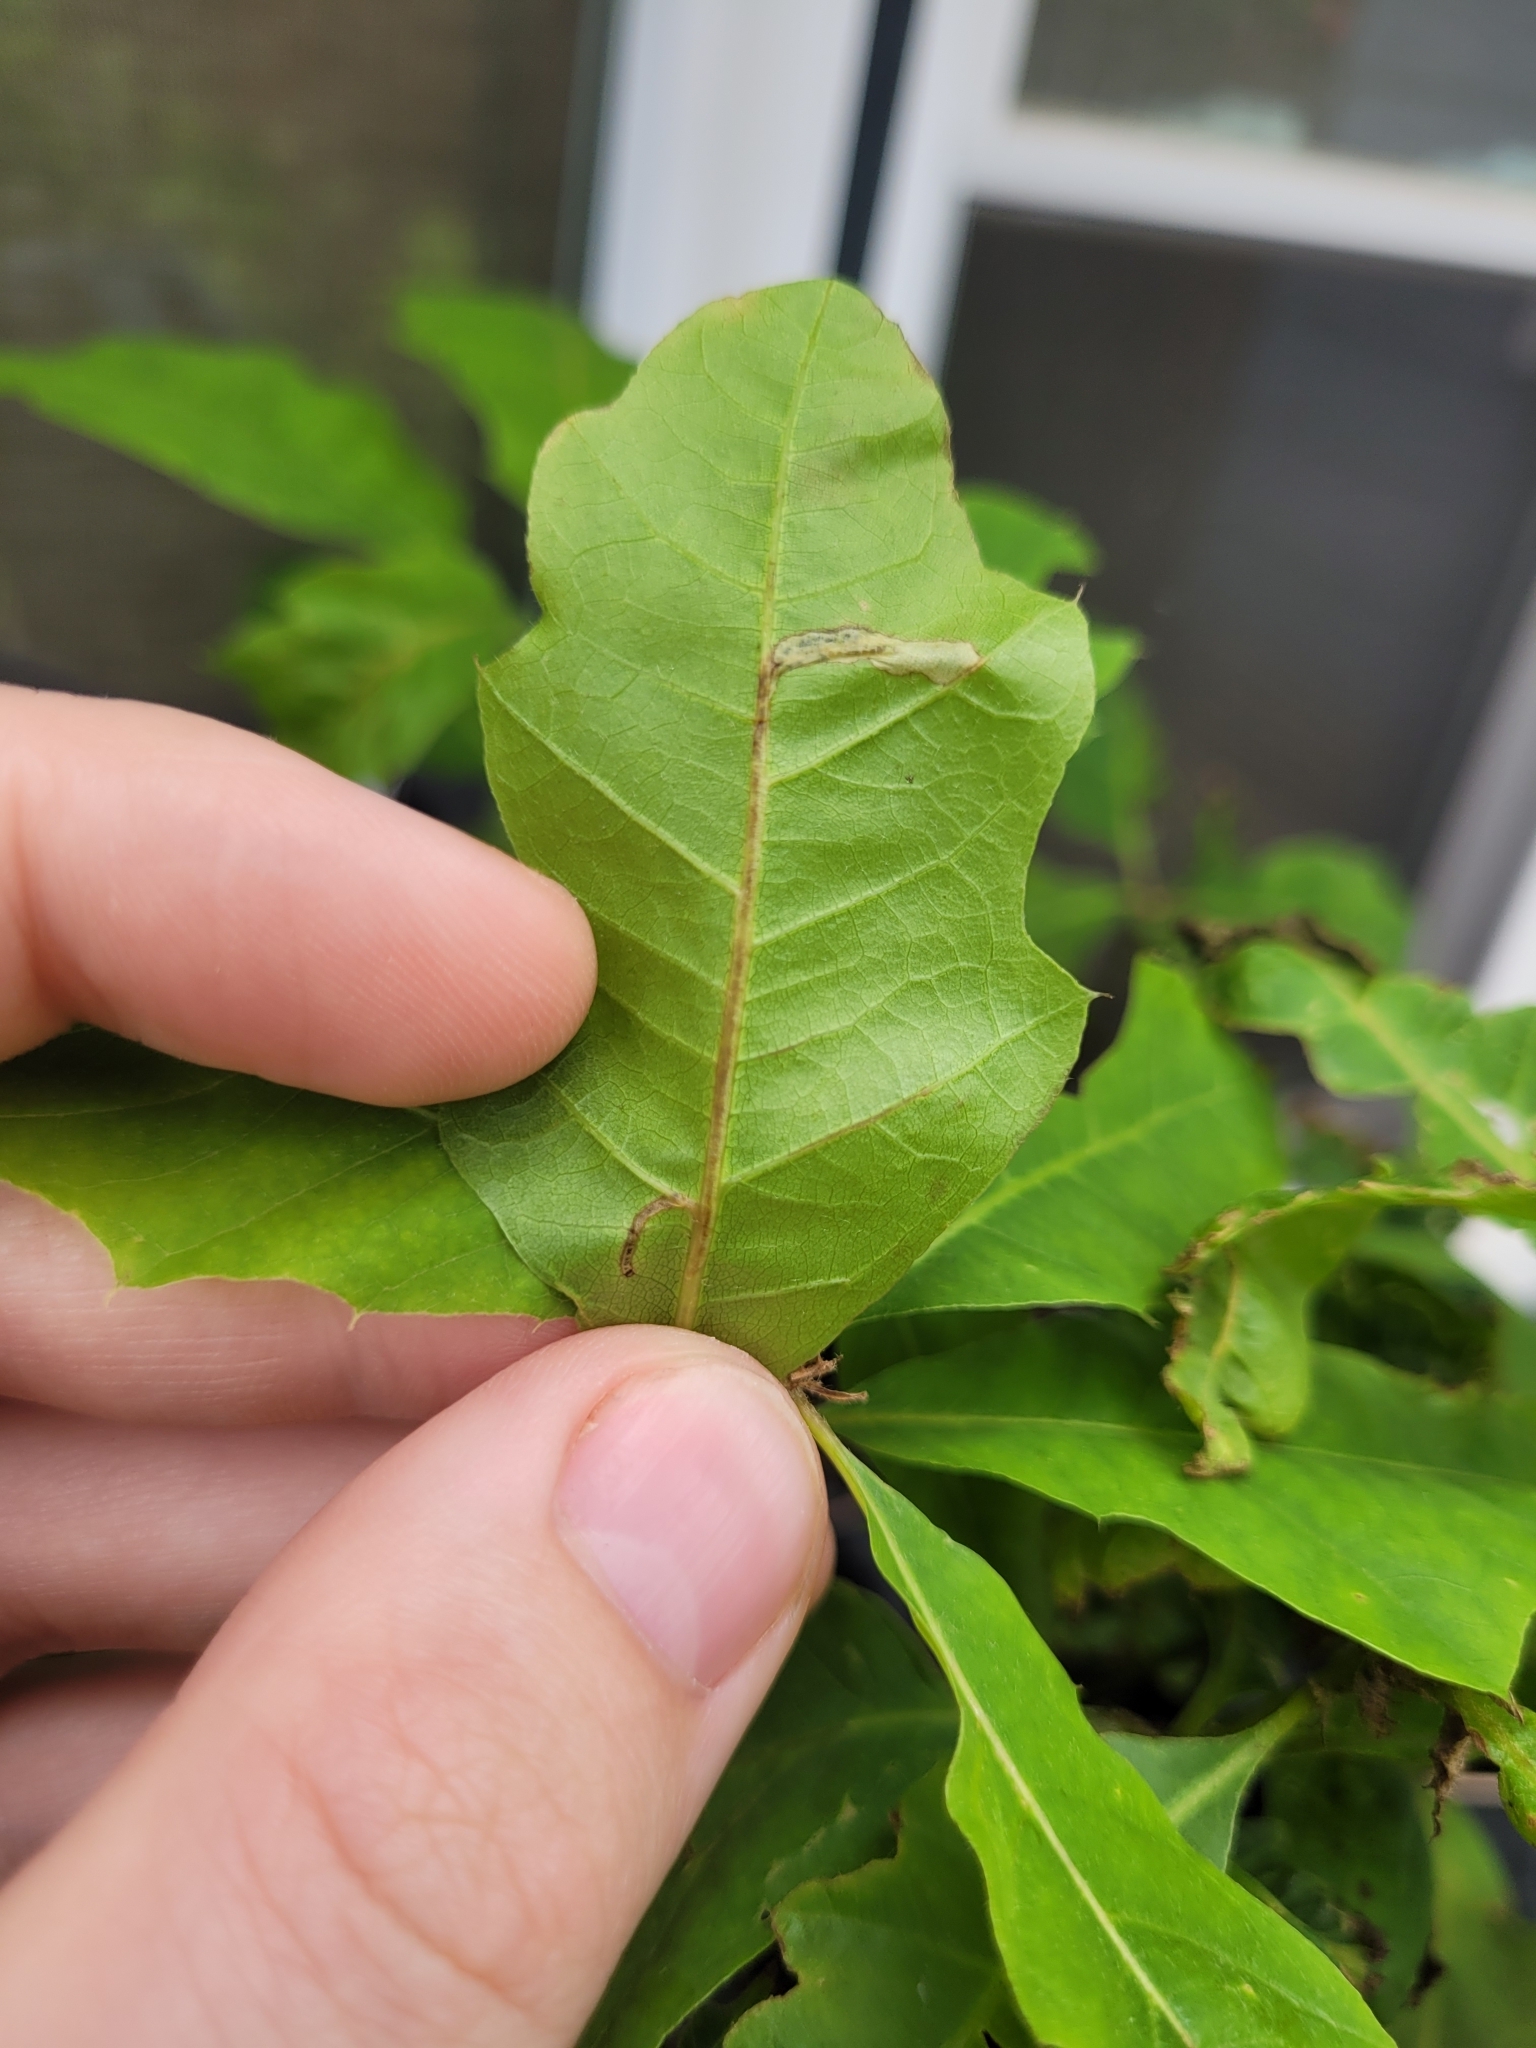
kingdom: Animalia
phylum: Arthropoda
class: Insecta
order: Lepidoptera
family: Gracillariidae
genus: Neurobathra
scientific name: Neurobathra strigifinitella
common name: Finite-channeled leafminer moth
